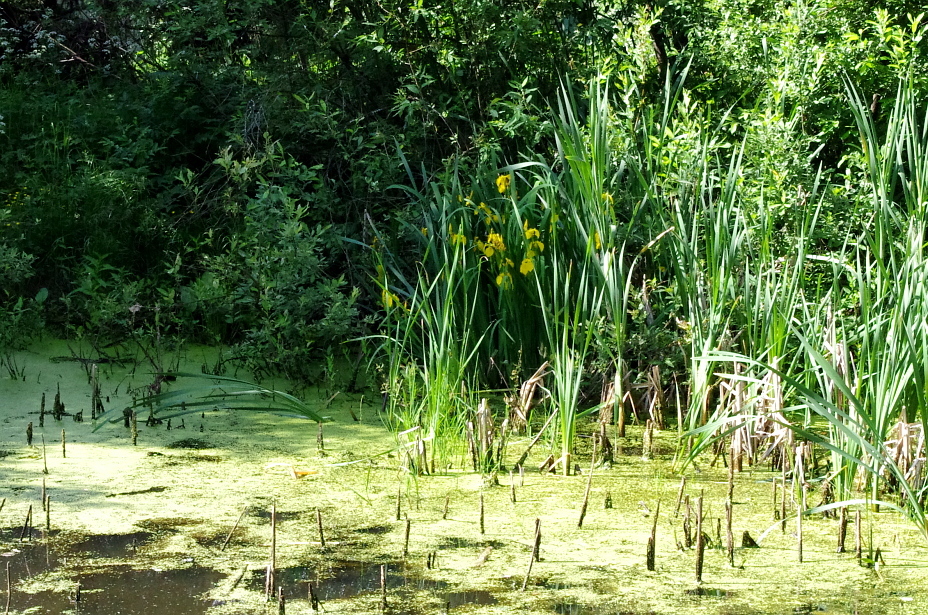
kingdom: Plantae
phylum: Tracheophyta
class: Liliopsida
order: Asparagales
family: Iridaceae
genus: Iris
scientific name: Iris pseudacorus
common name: Yellow flag
